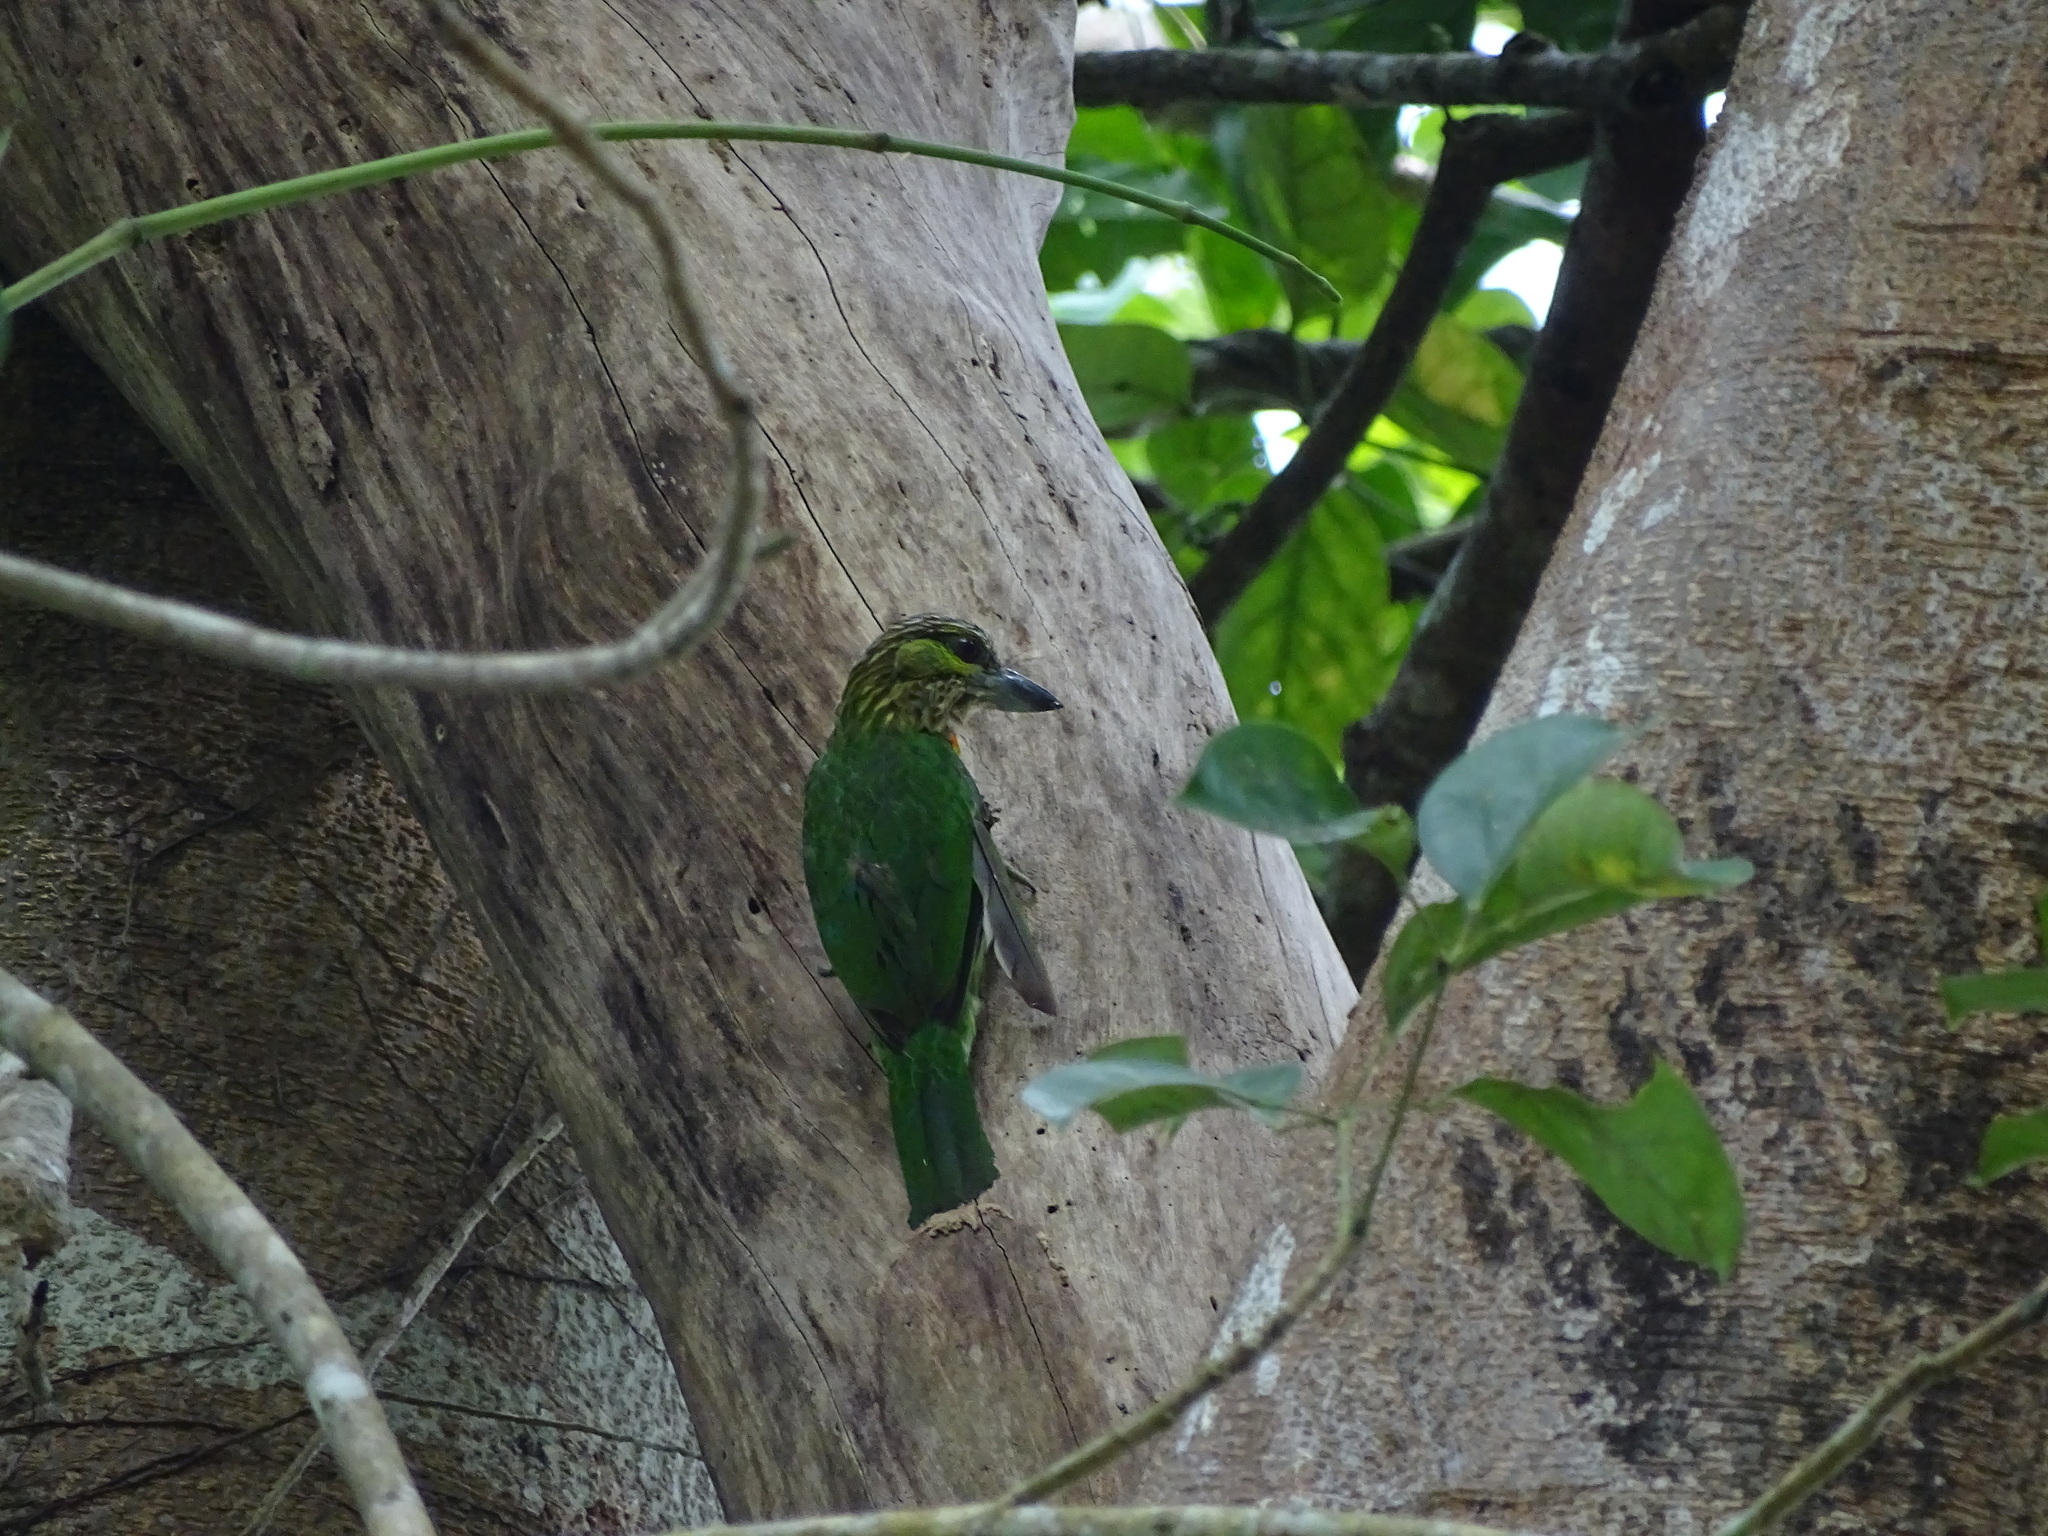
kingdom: Animalia
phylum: Chordata
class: Aves
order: Piciformes
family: Megalaimidae
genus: Psilopogon
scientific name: Psilopogon faiostrictus
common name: Green-eared barbet
